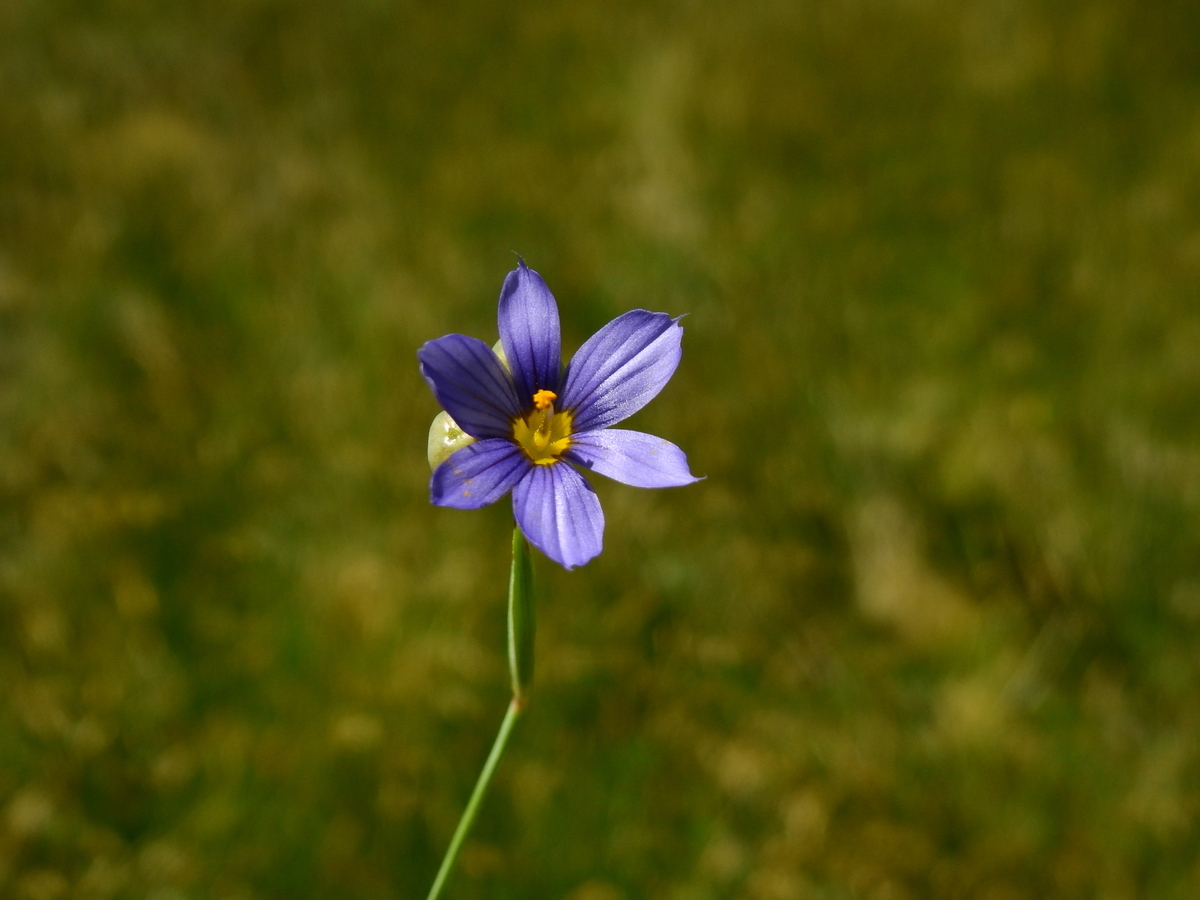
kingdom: Plantae
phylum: Tracheophyta
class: Liliopsida
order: Asparagales
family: Iridaceae
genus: Sisyrinchium
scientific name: Sisyrinchium chilense
